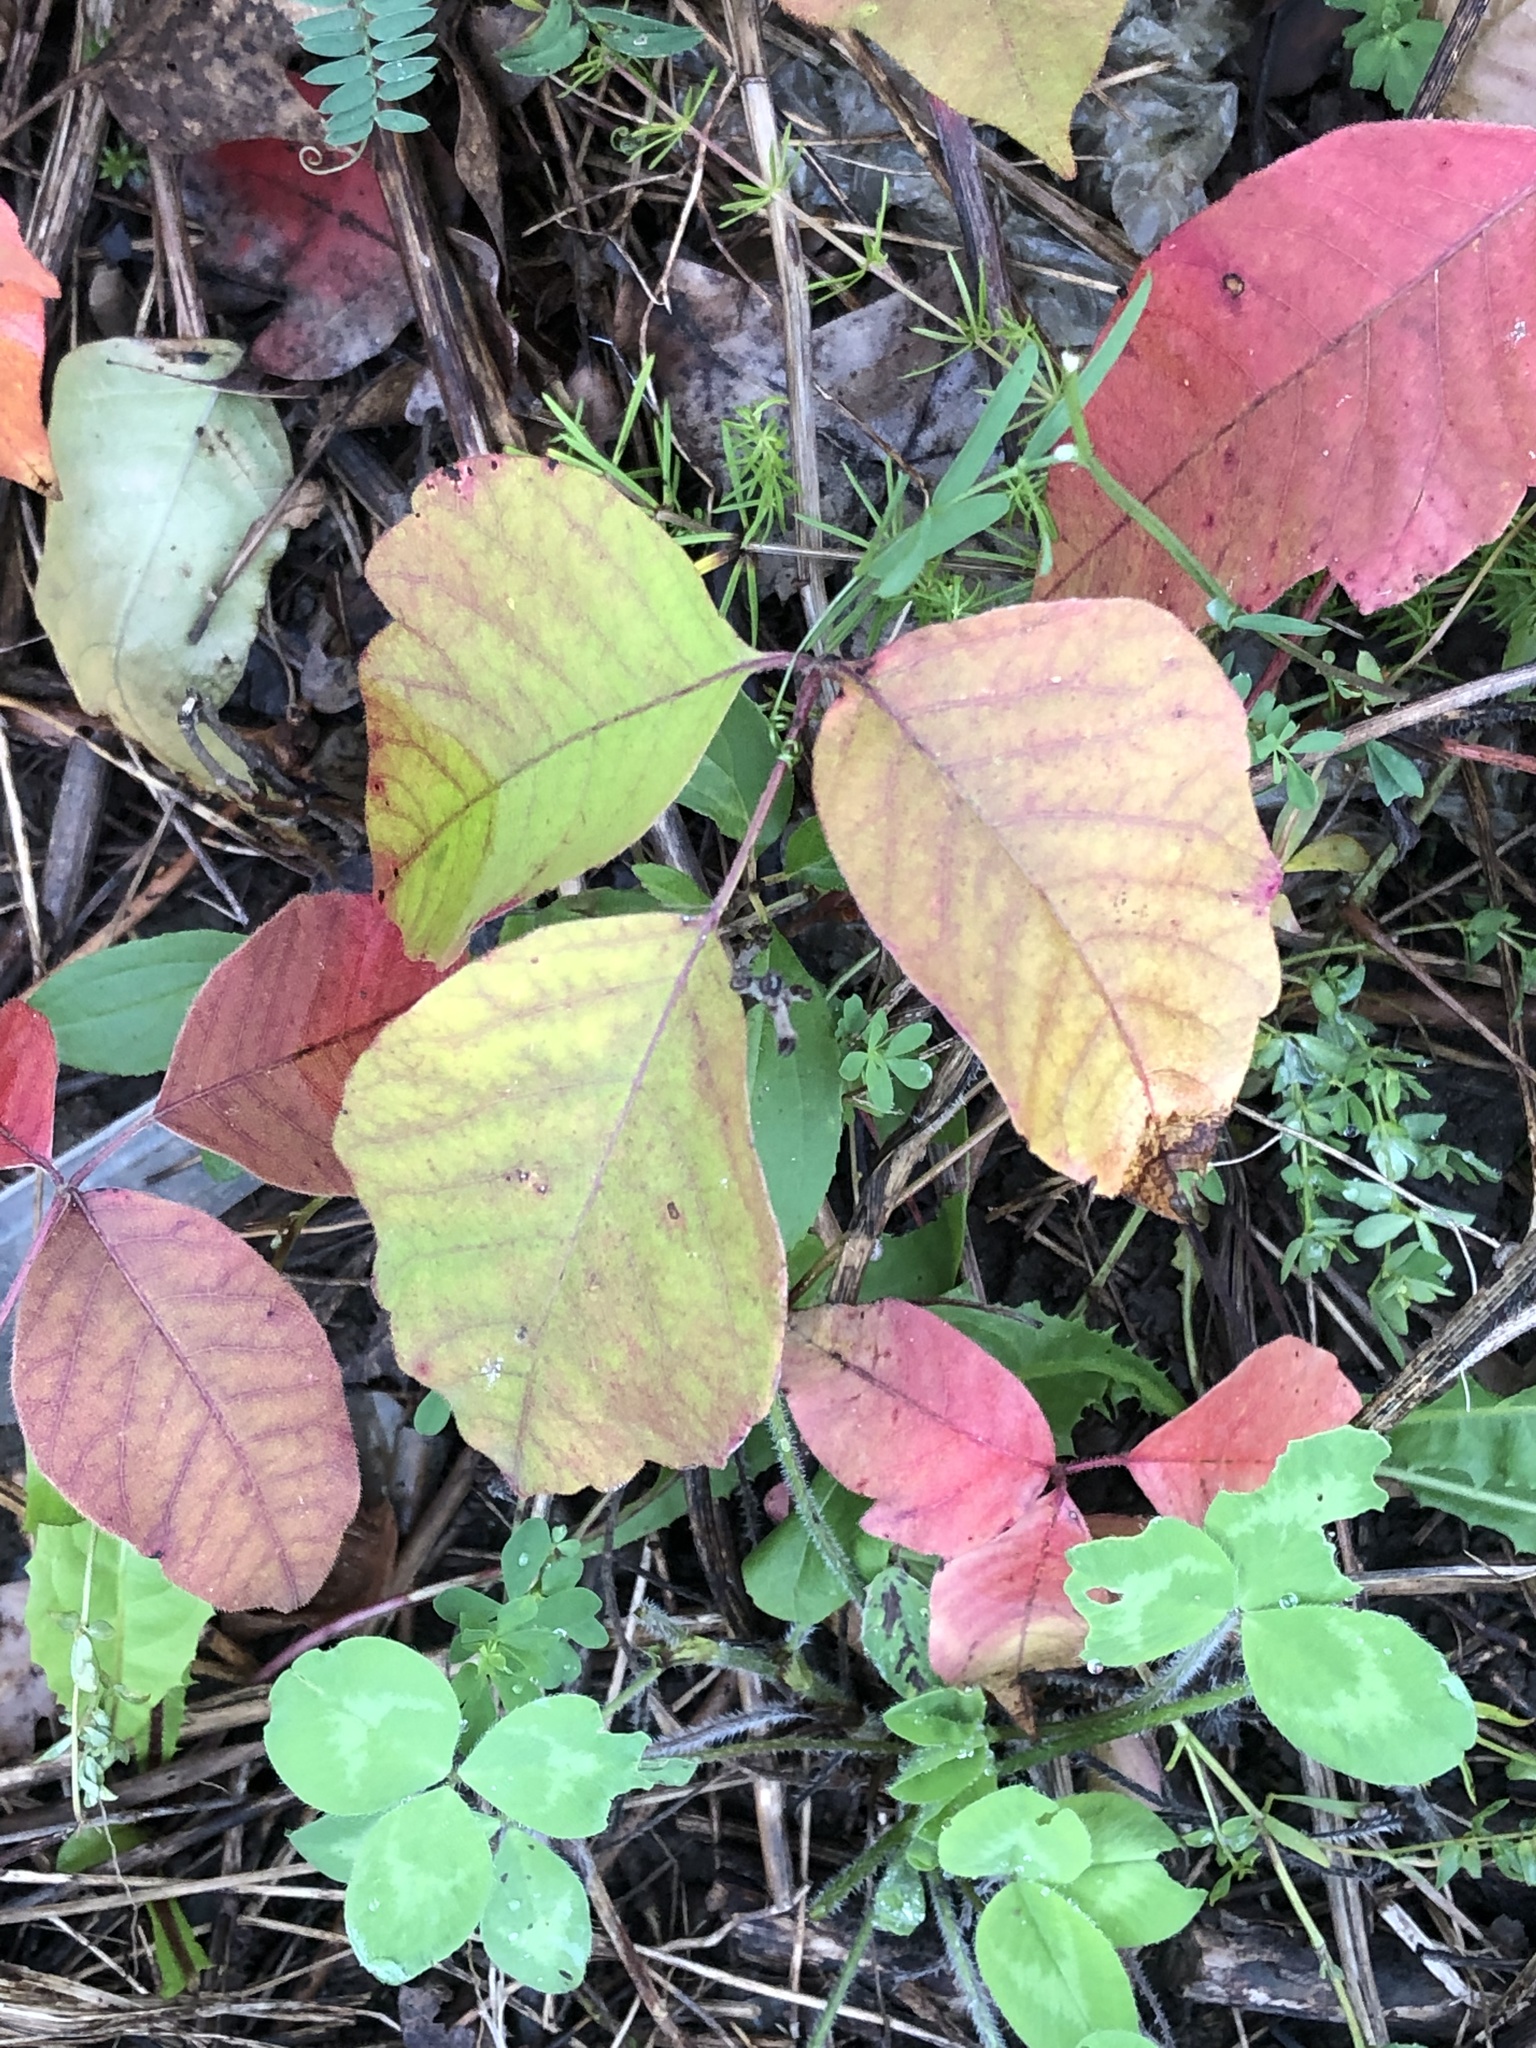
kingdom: Plantae
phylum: Tracheophyta
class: Magnoliopsida
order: Sapindales
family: Anacardiaceae
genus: Toxicodendron
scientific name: Toxicodendron rydbergii
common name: Rydberg's poison-ivy
